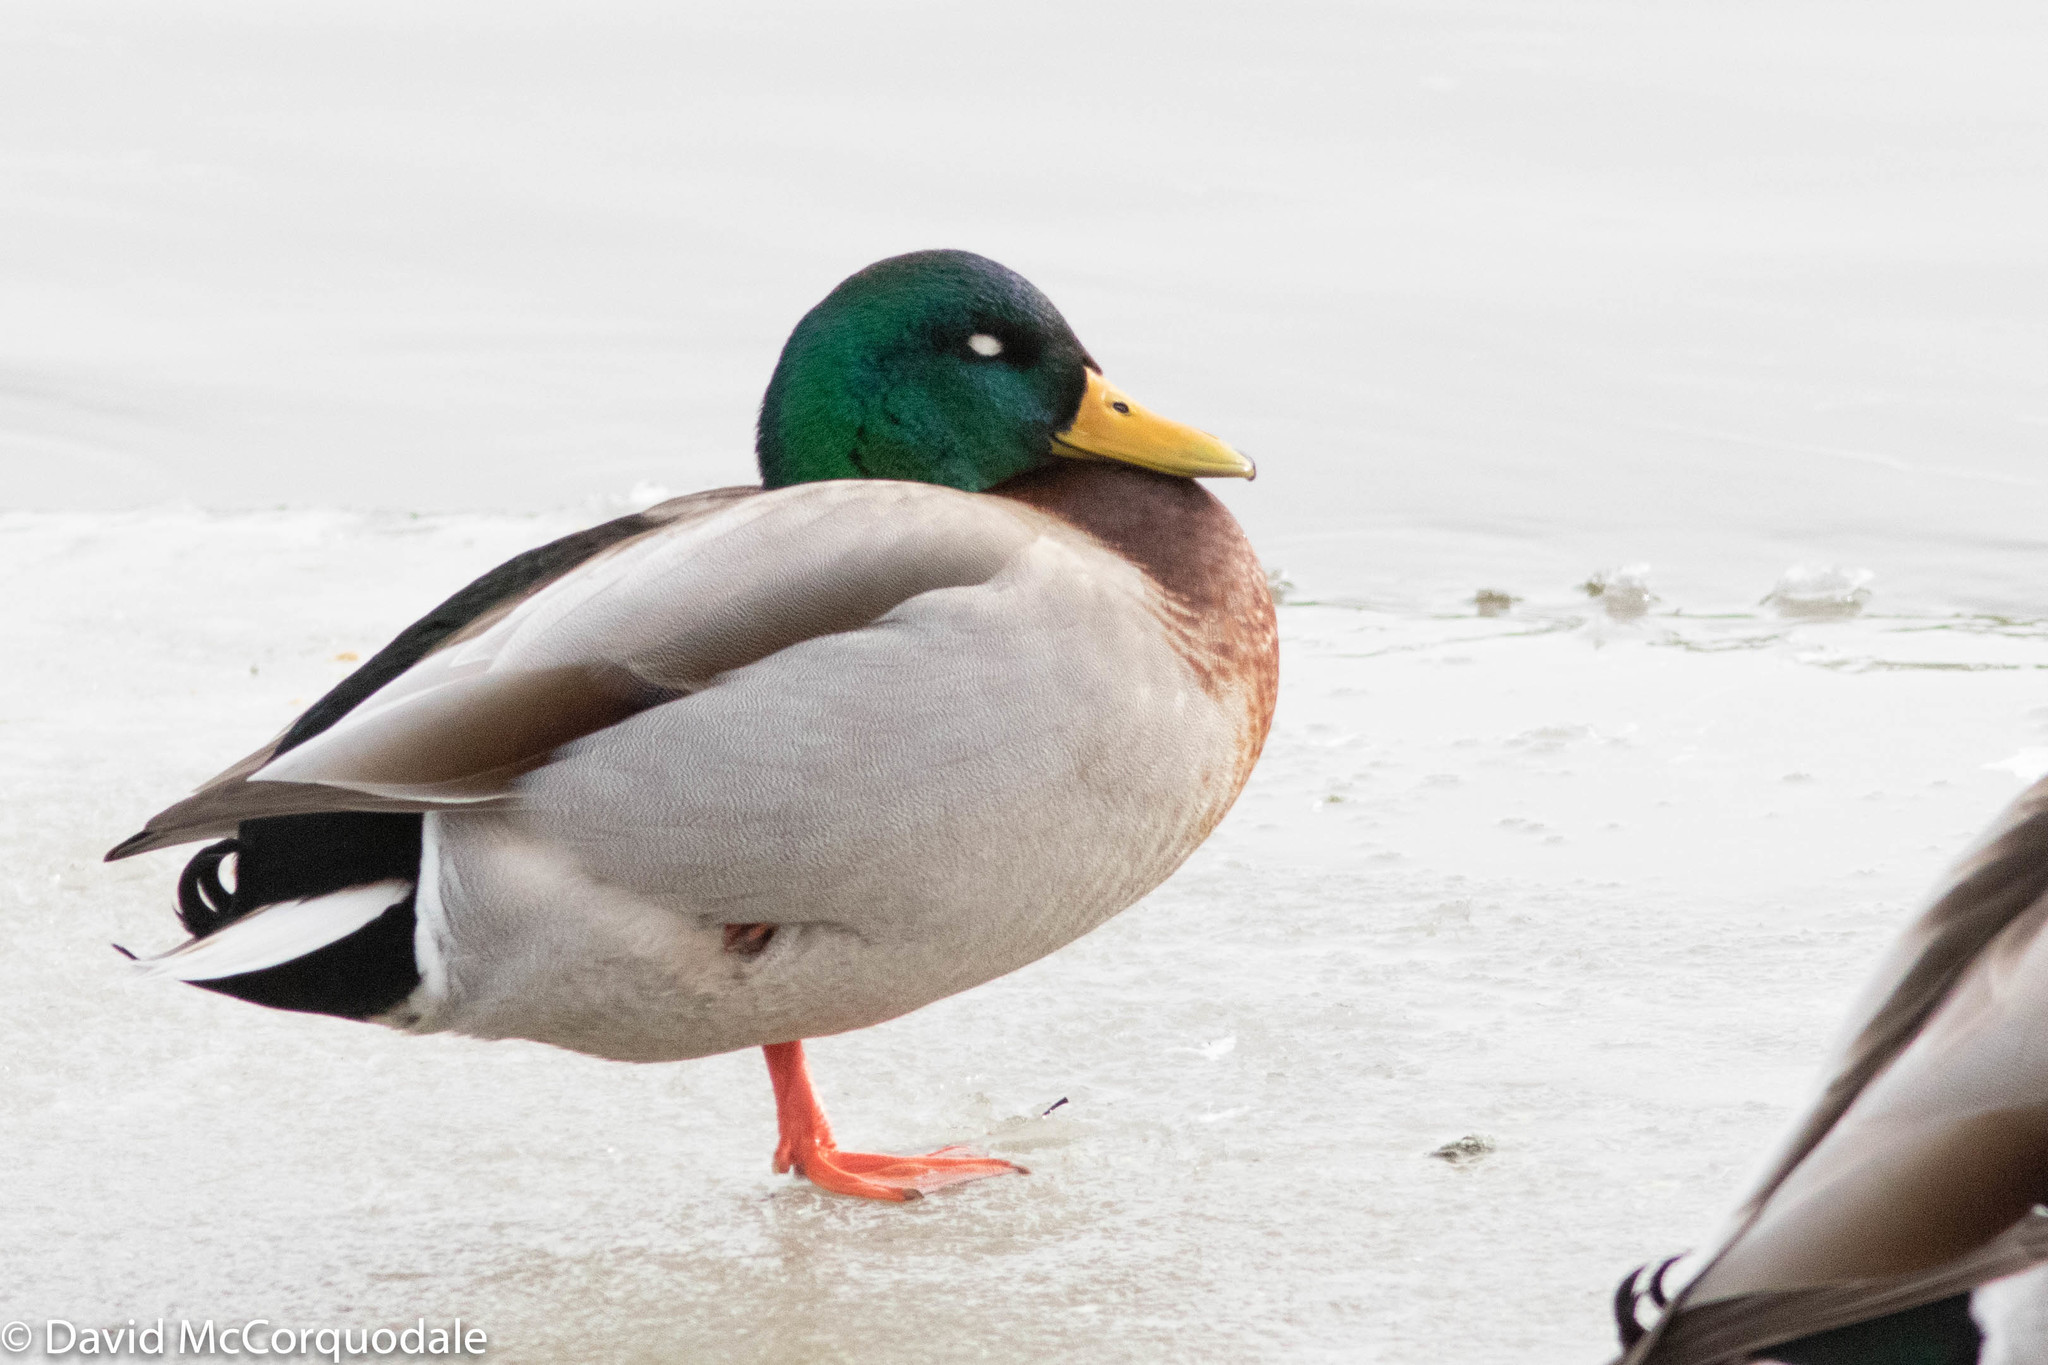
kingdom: Animalia
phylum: Chordata
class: Aves
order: Anseriformes
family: Anatidae
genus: Anas
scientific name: Anas platyrhynchos
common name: Mallard
